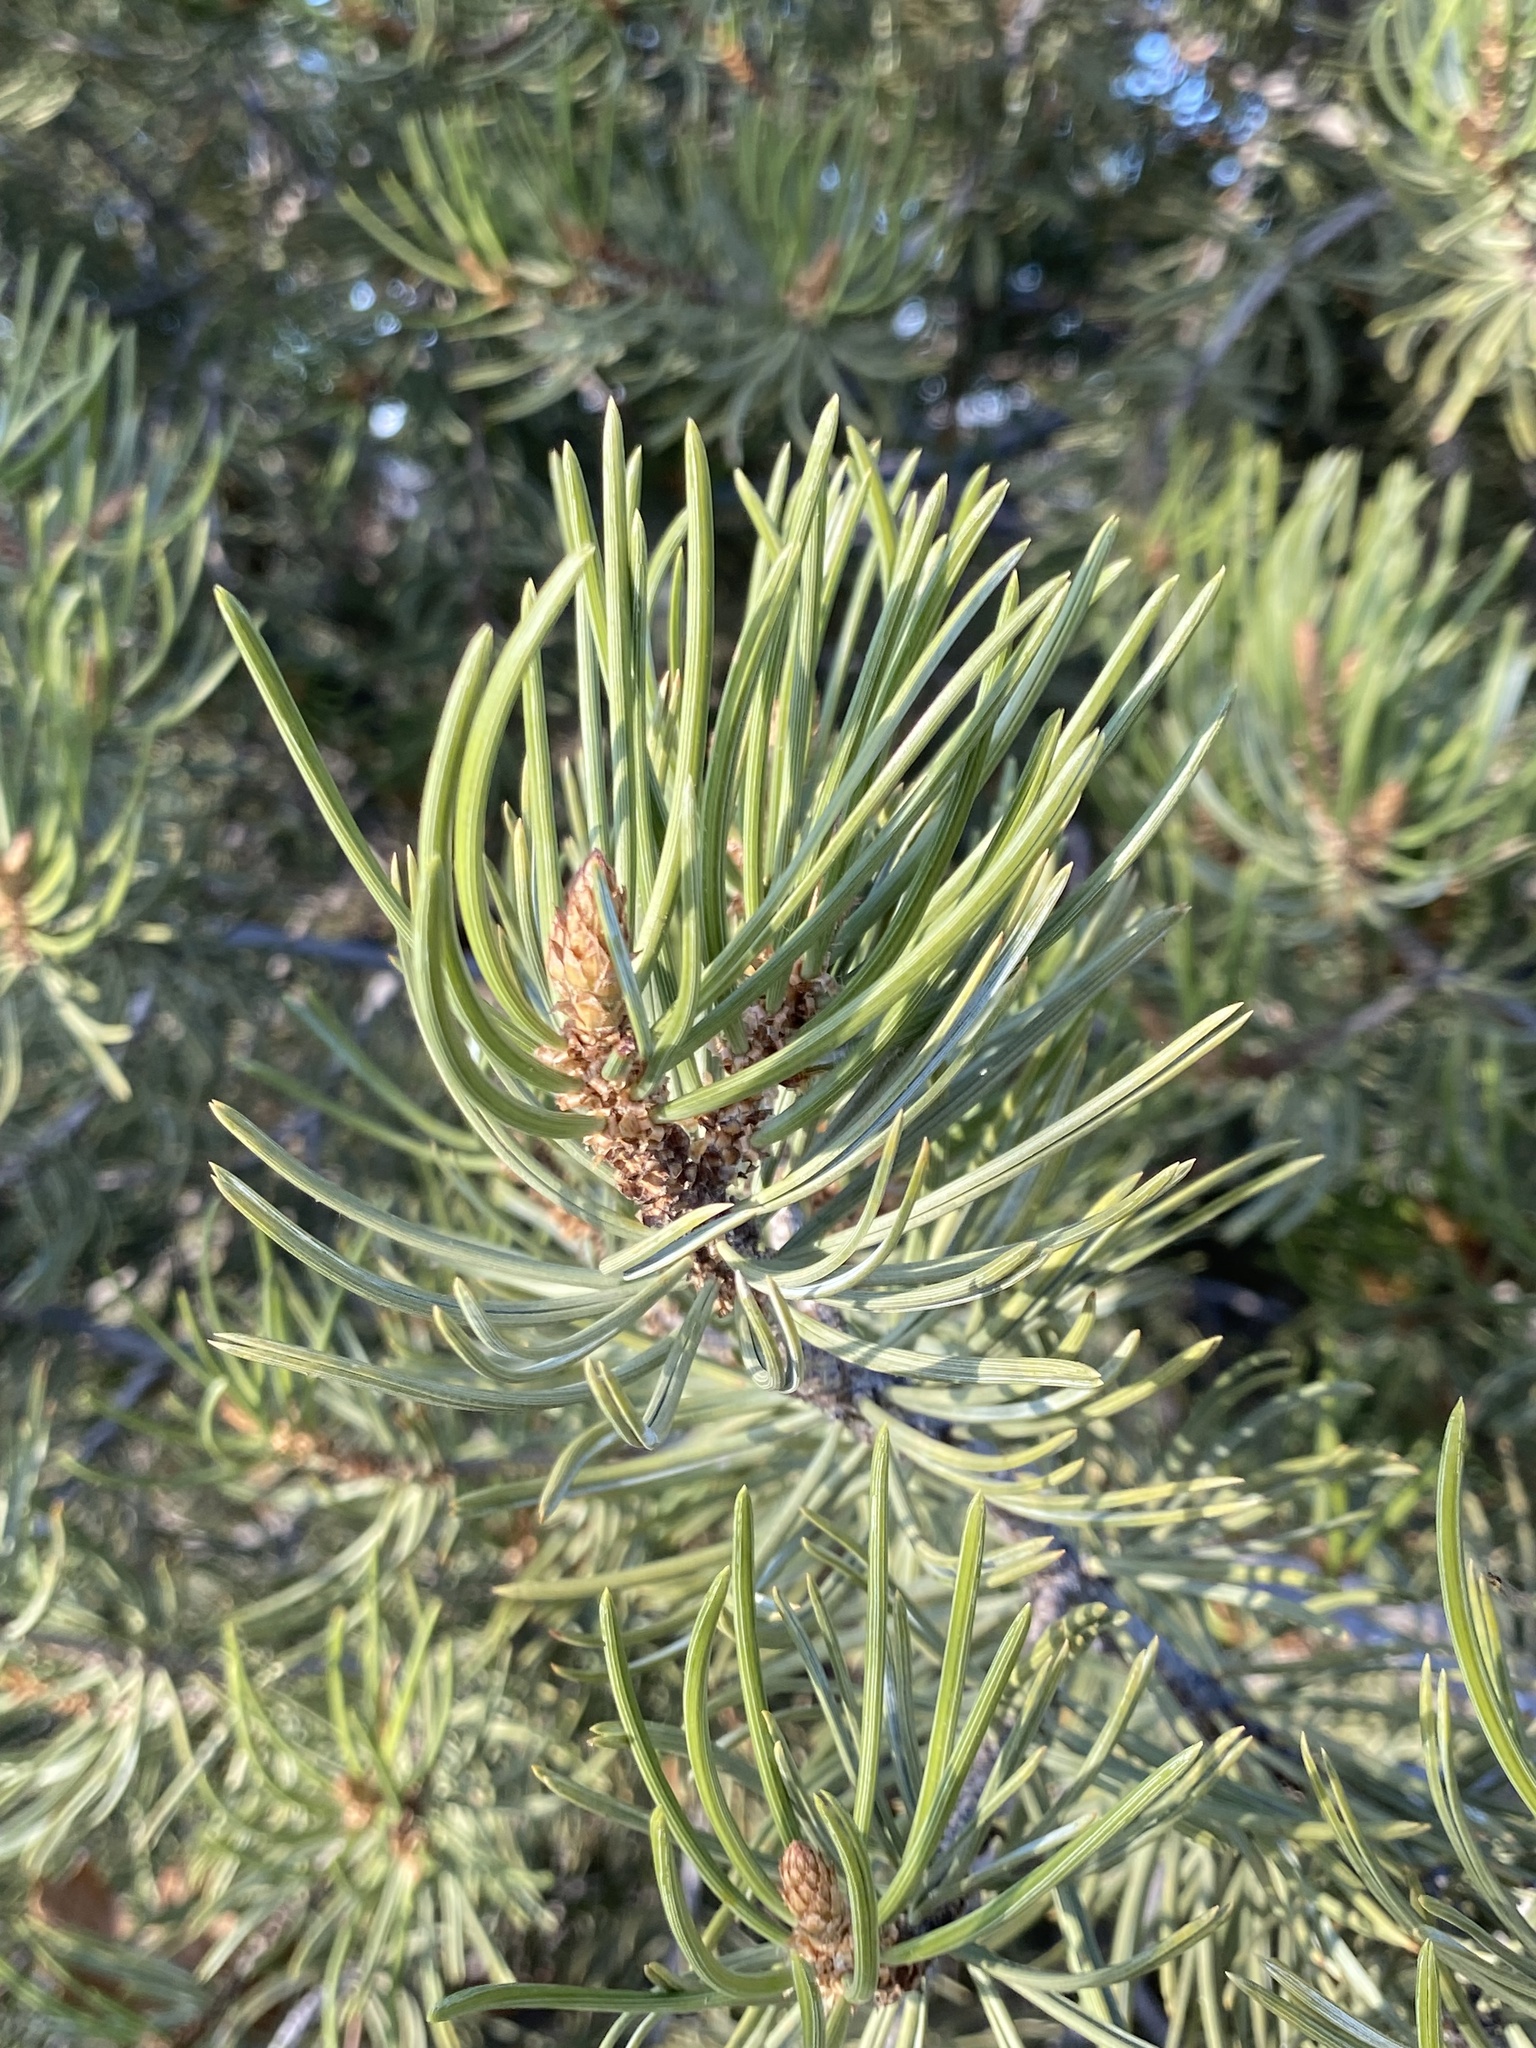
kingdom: Plantae
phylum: Tracheophyta
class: Pinopsida
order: Pinales
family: Pinaceae
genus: Pinus
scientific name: Pinus edulis
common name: Colorado pinyon
